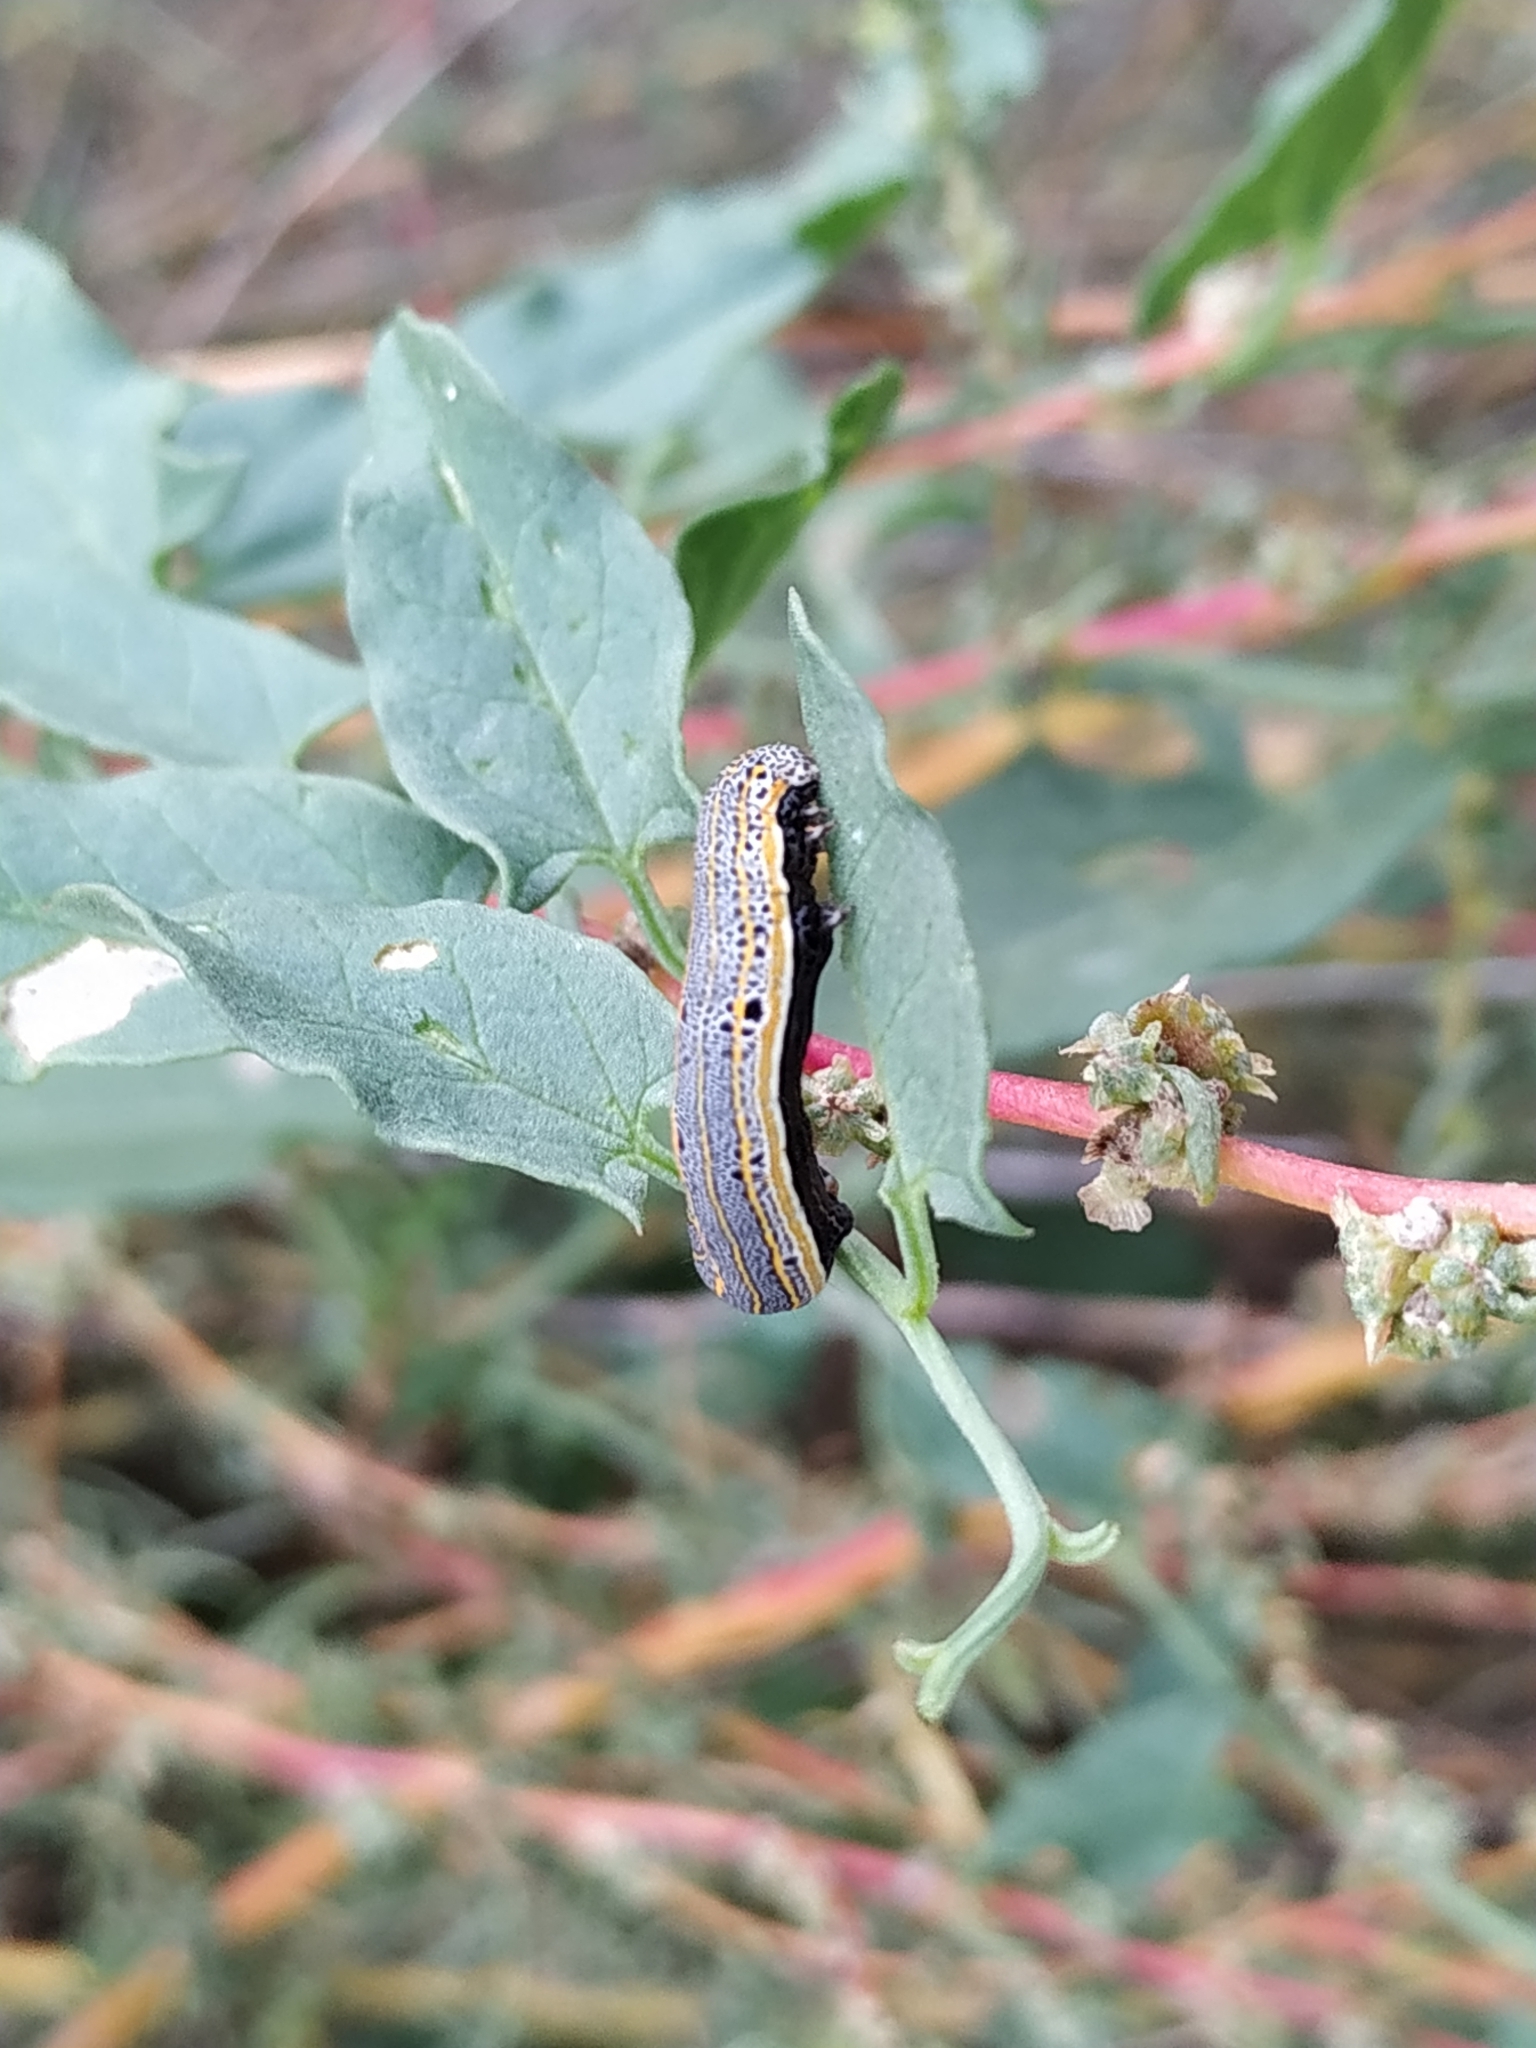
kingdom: Animalia
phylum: Arthropoda
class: Insecta
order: Lepidoptera
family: Noctuidae
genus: Aedia
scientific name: Aedia leucomelas
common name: Sorcerer
